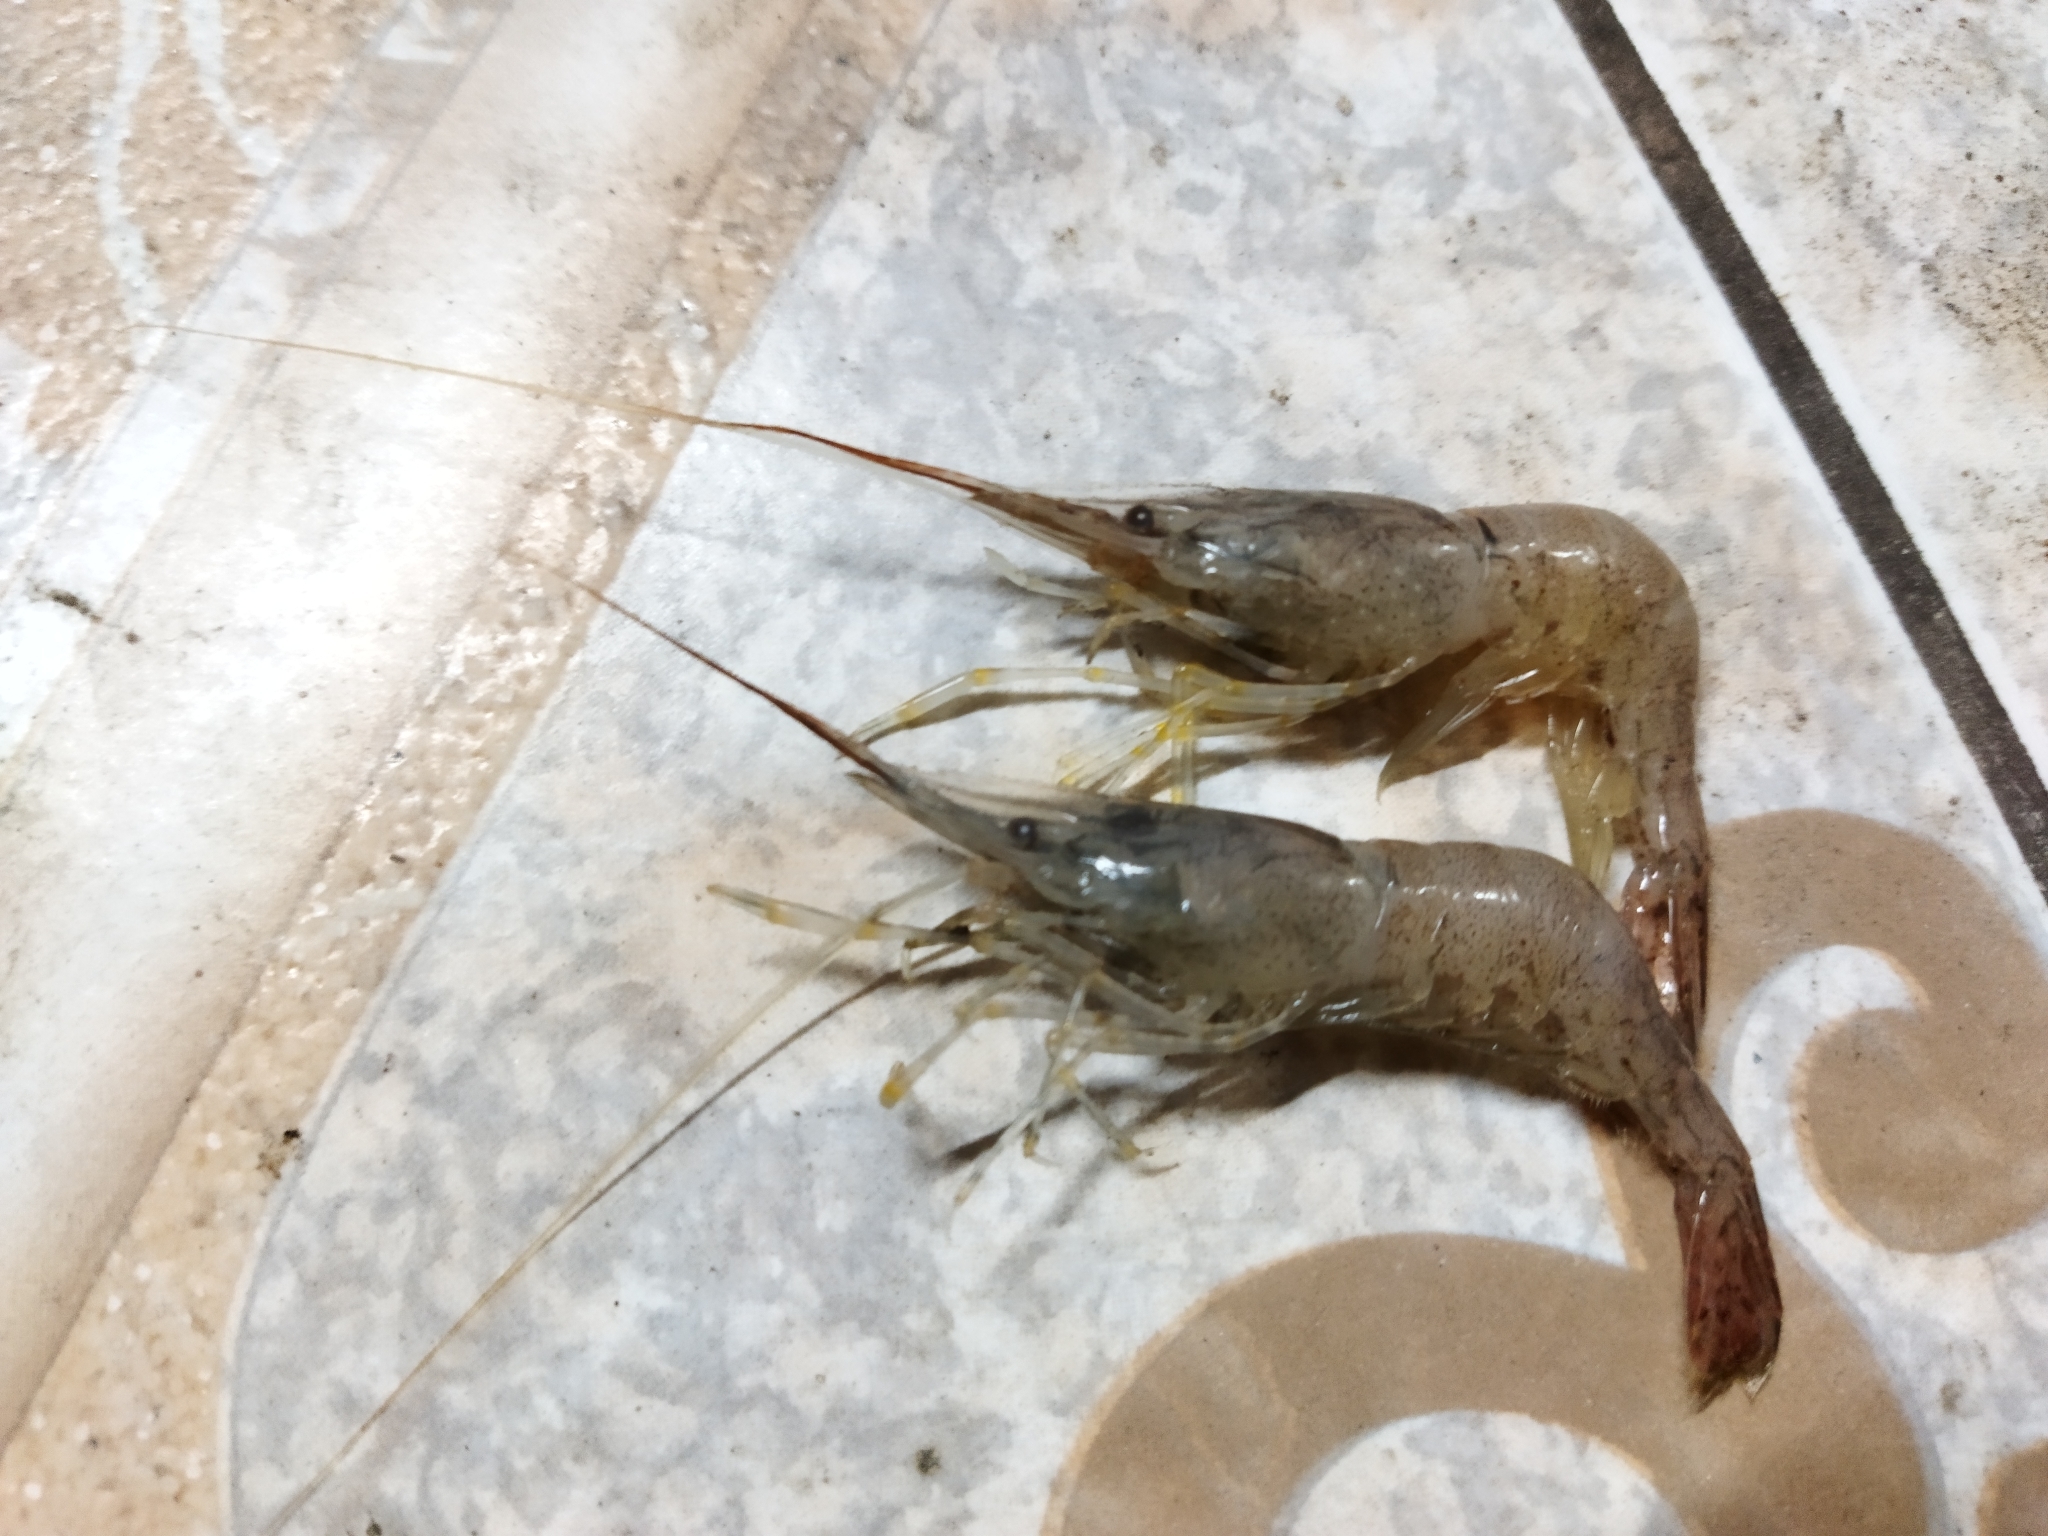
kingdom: Animalia
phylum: Arthropoda
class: Malacostraca
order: Decapoda
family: Palaemonidae
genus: Palaemon
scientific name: Palaemon adspersus
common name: Baltic prawn
